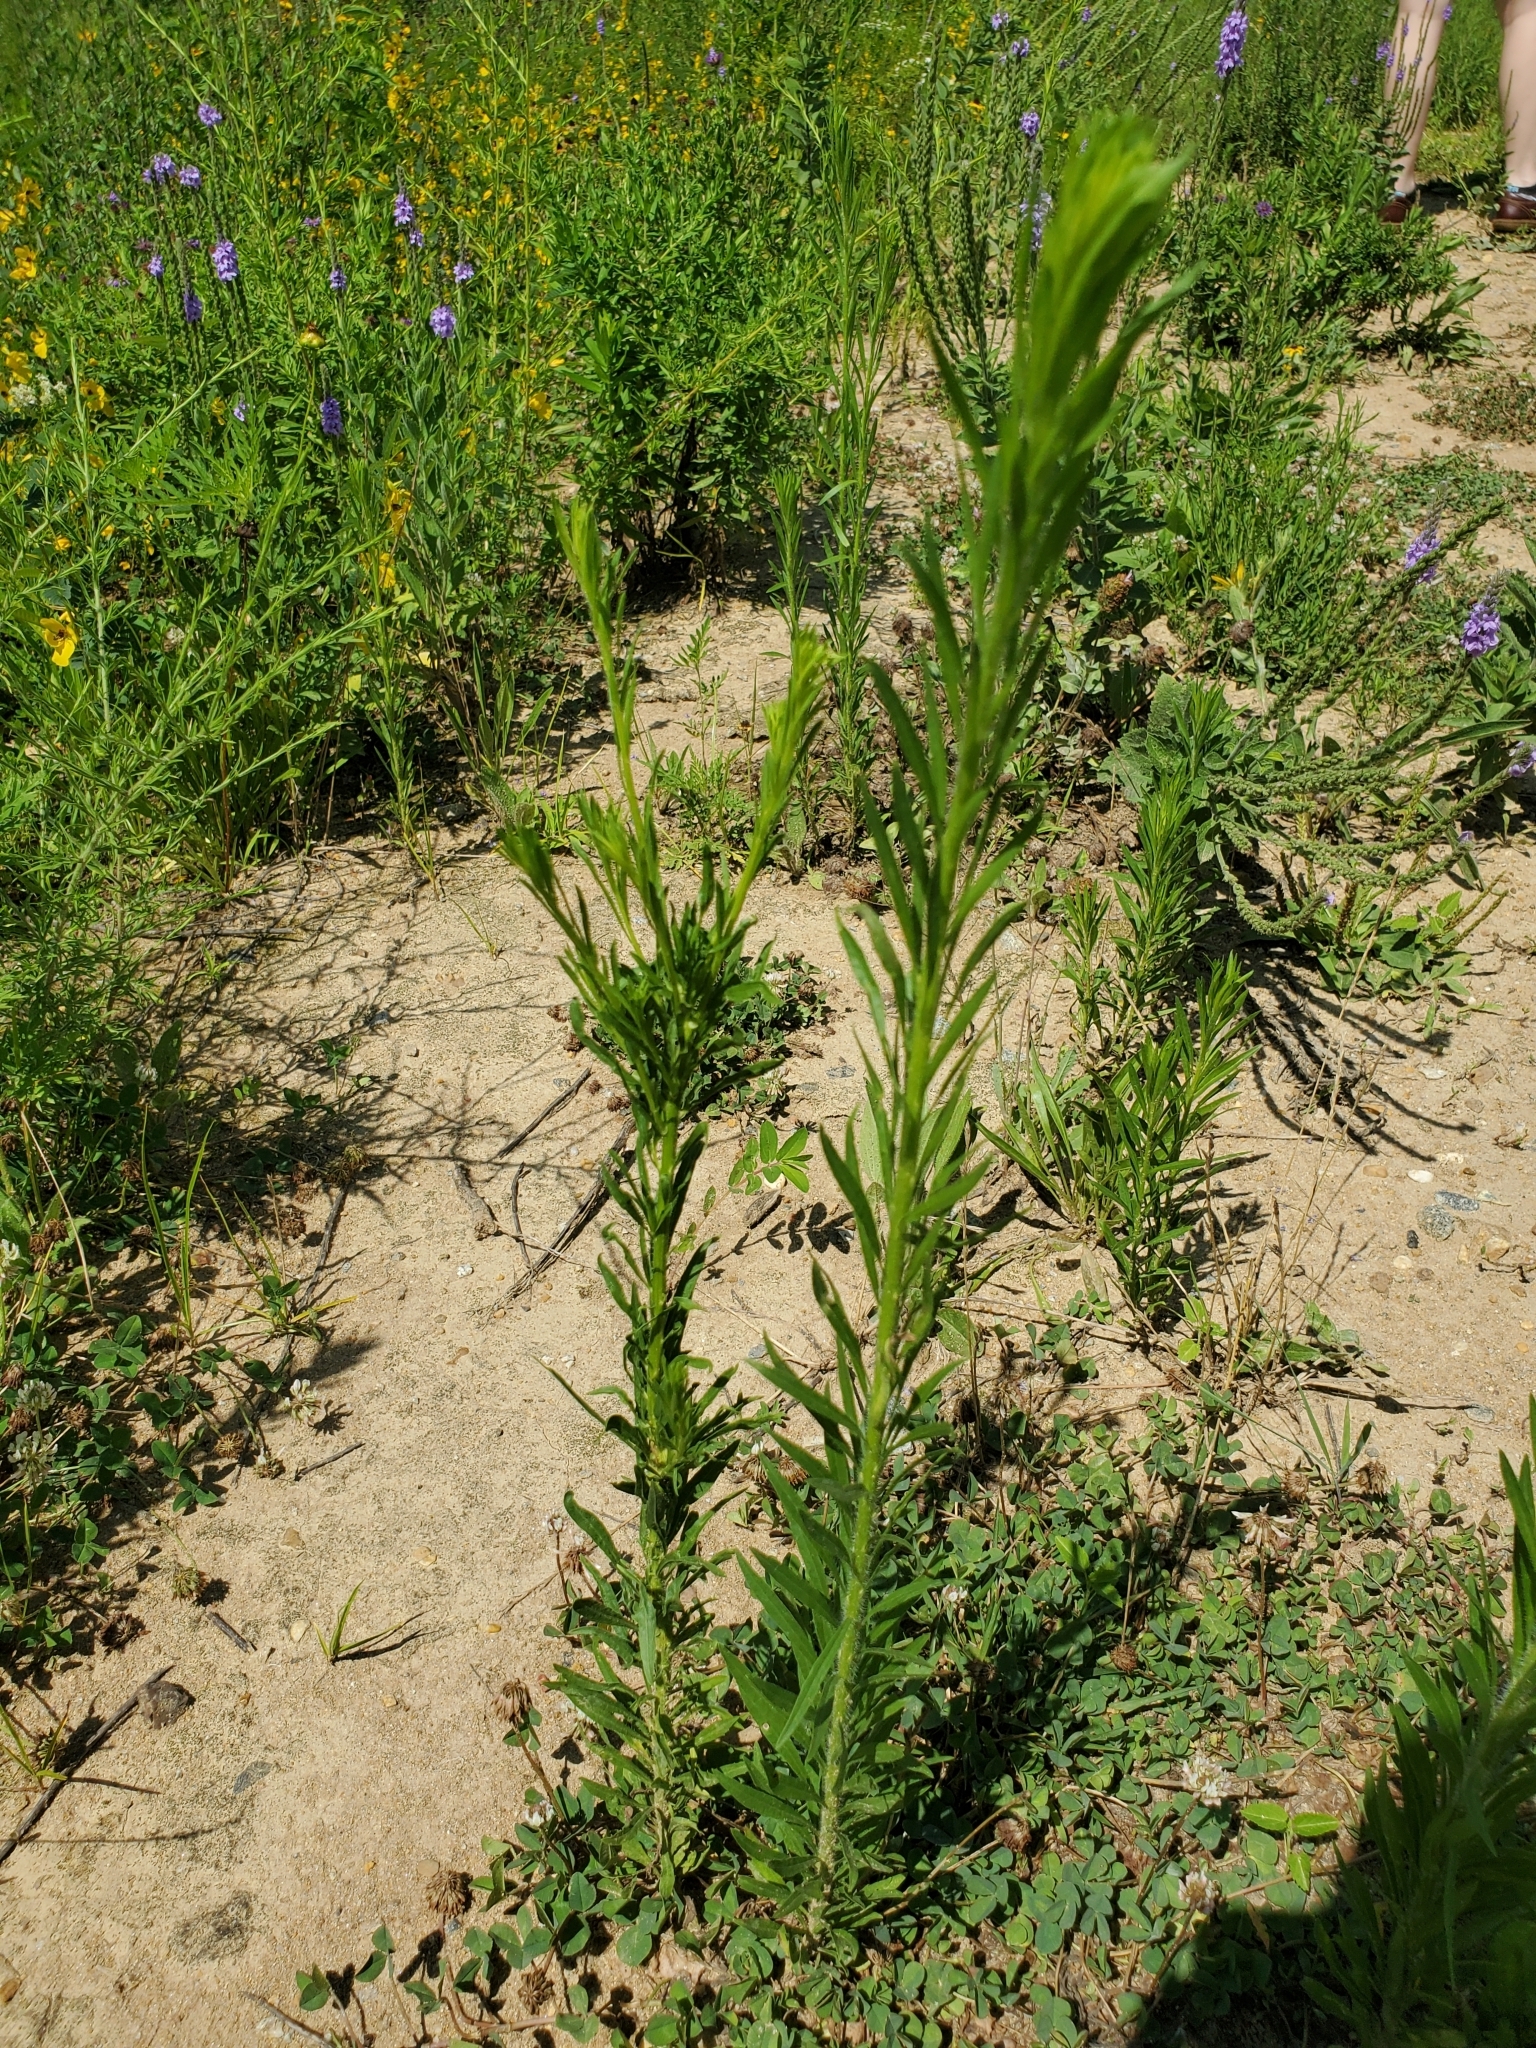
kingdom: Plantae
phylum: Tracheophyta
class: Magnoliopsida
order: Asterales
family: Asteraceae
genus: Erigeron
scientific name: Erigeron canadensis
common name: Canadian fleabane
